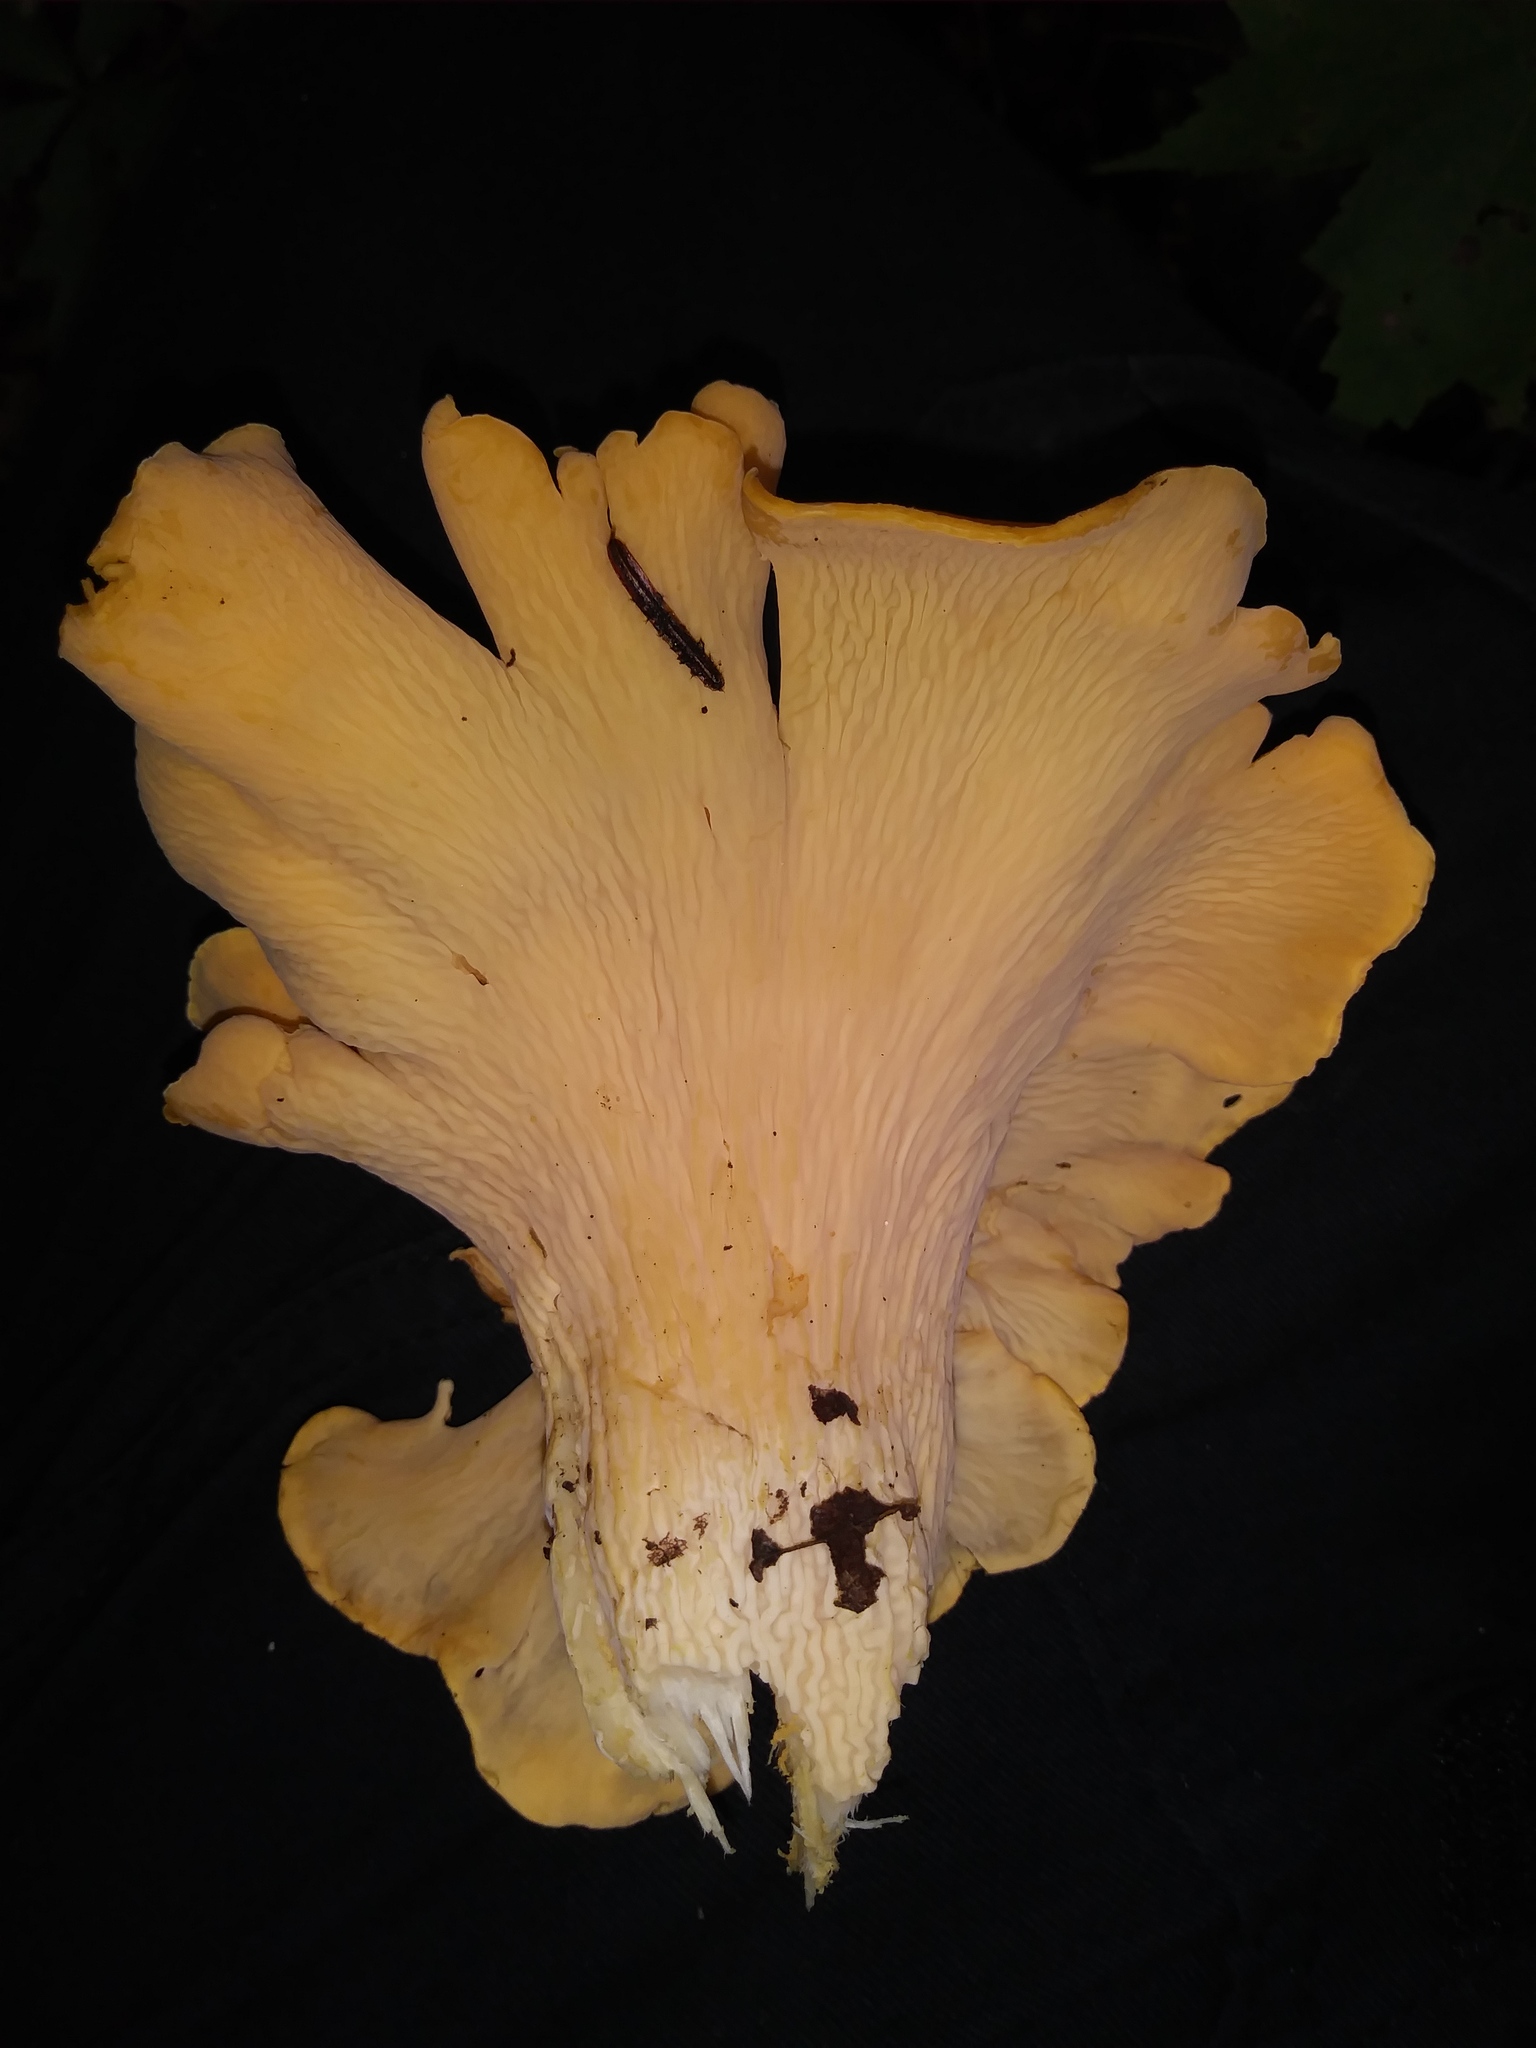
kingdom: Fungi
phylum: Basidiomycota
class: Agaricomycetes
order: Cantharellales
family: Hydnaceae
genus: Cantharellus
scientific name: Cantharellus lateritius
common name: Smooth chanterelle
